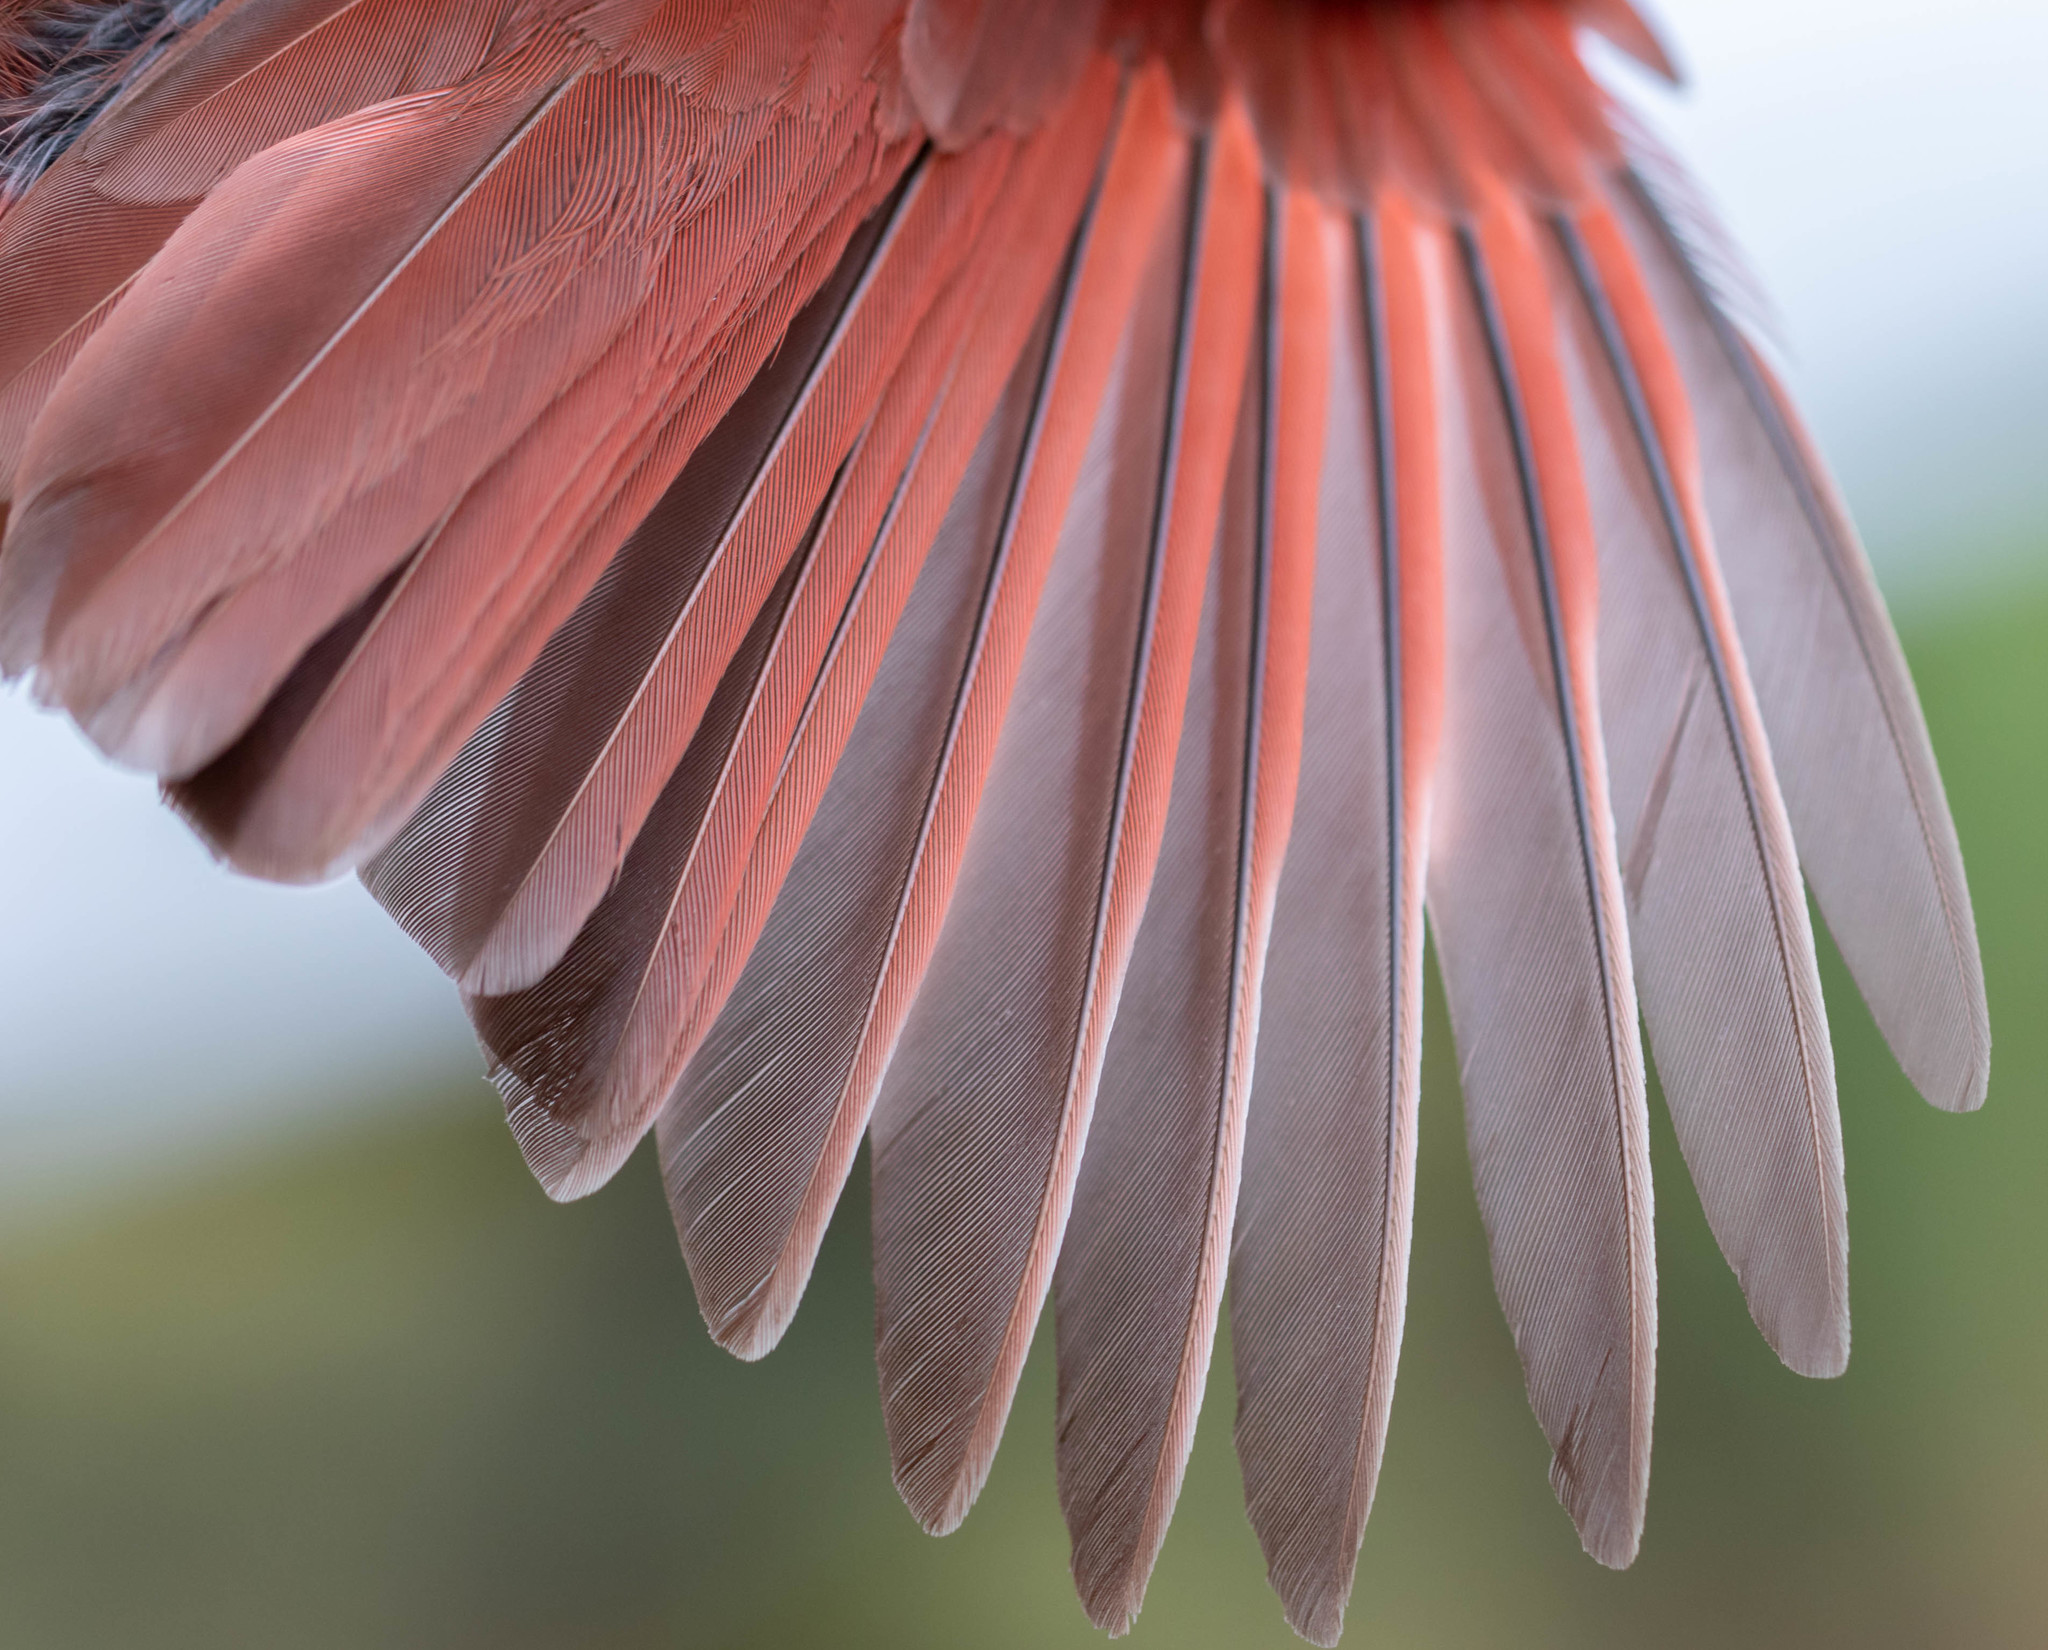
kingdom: Animalia
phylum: Chordata
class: Aves
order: Passeriformes
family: Cardinalidae
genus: Cardinalis
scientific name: Cardinalis cardinalis
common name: Northern cardinal
